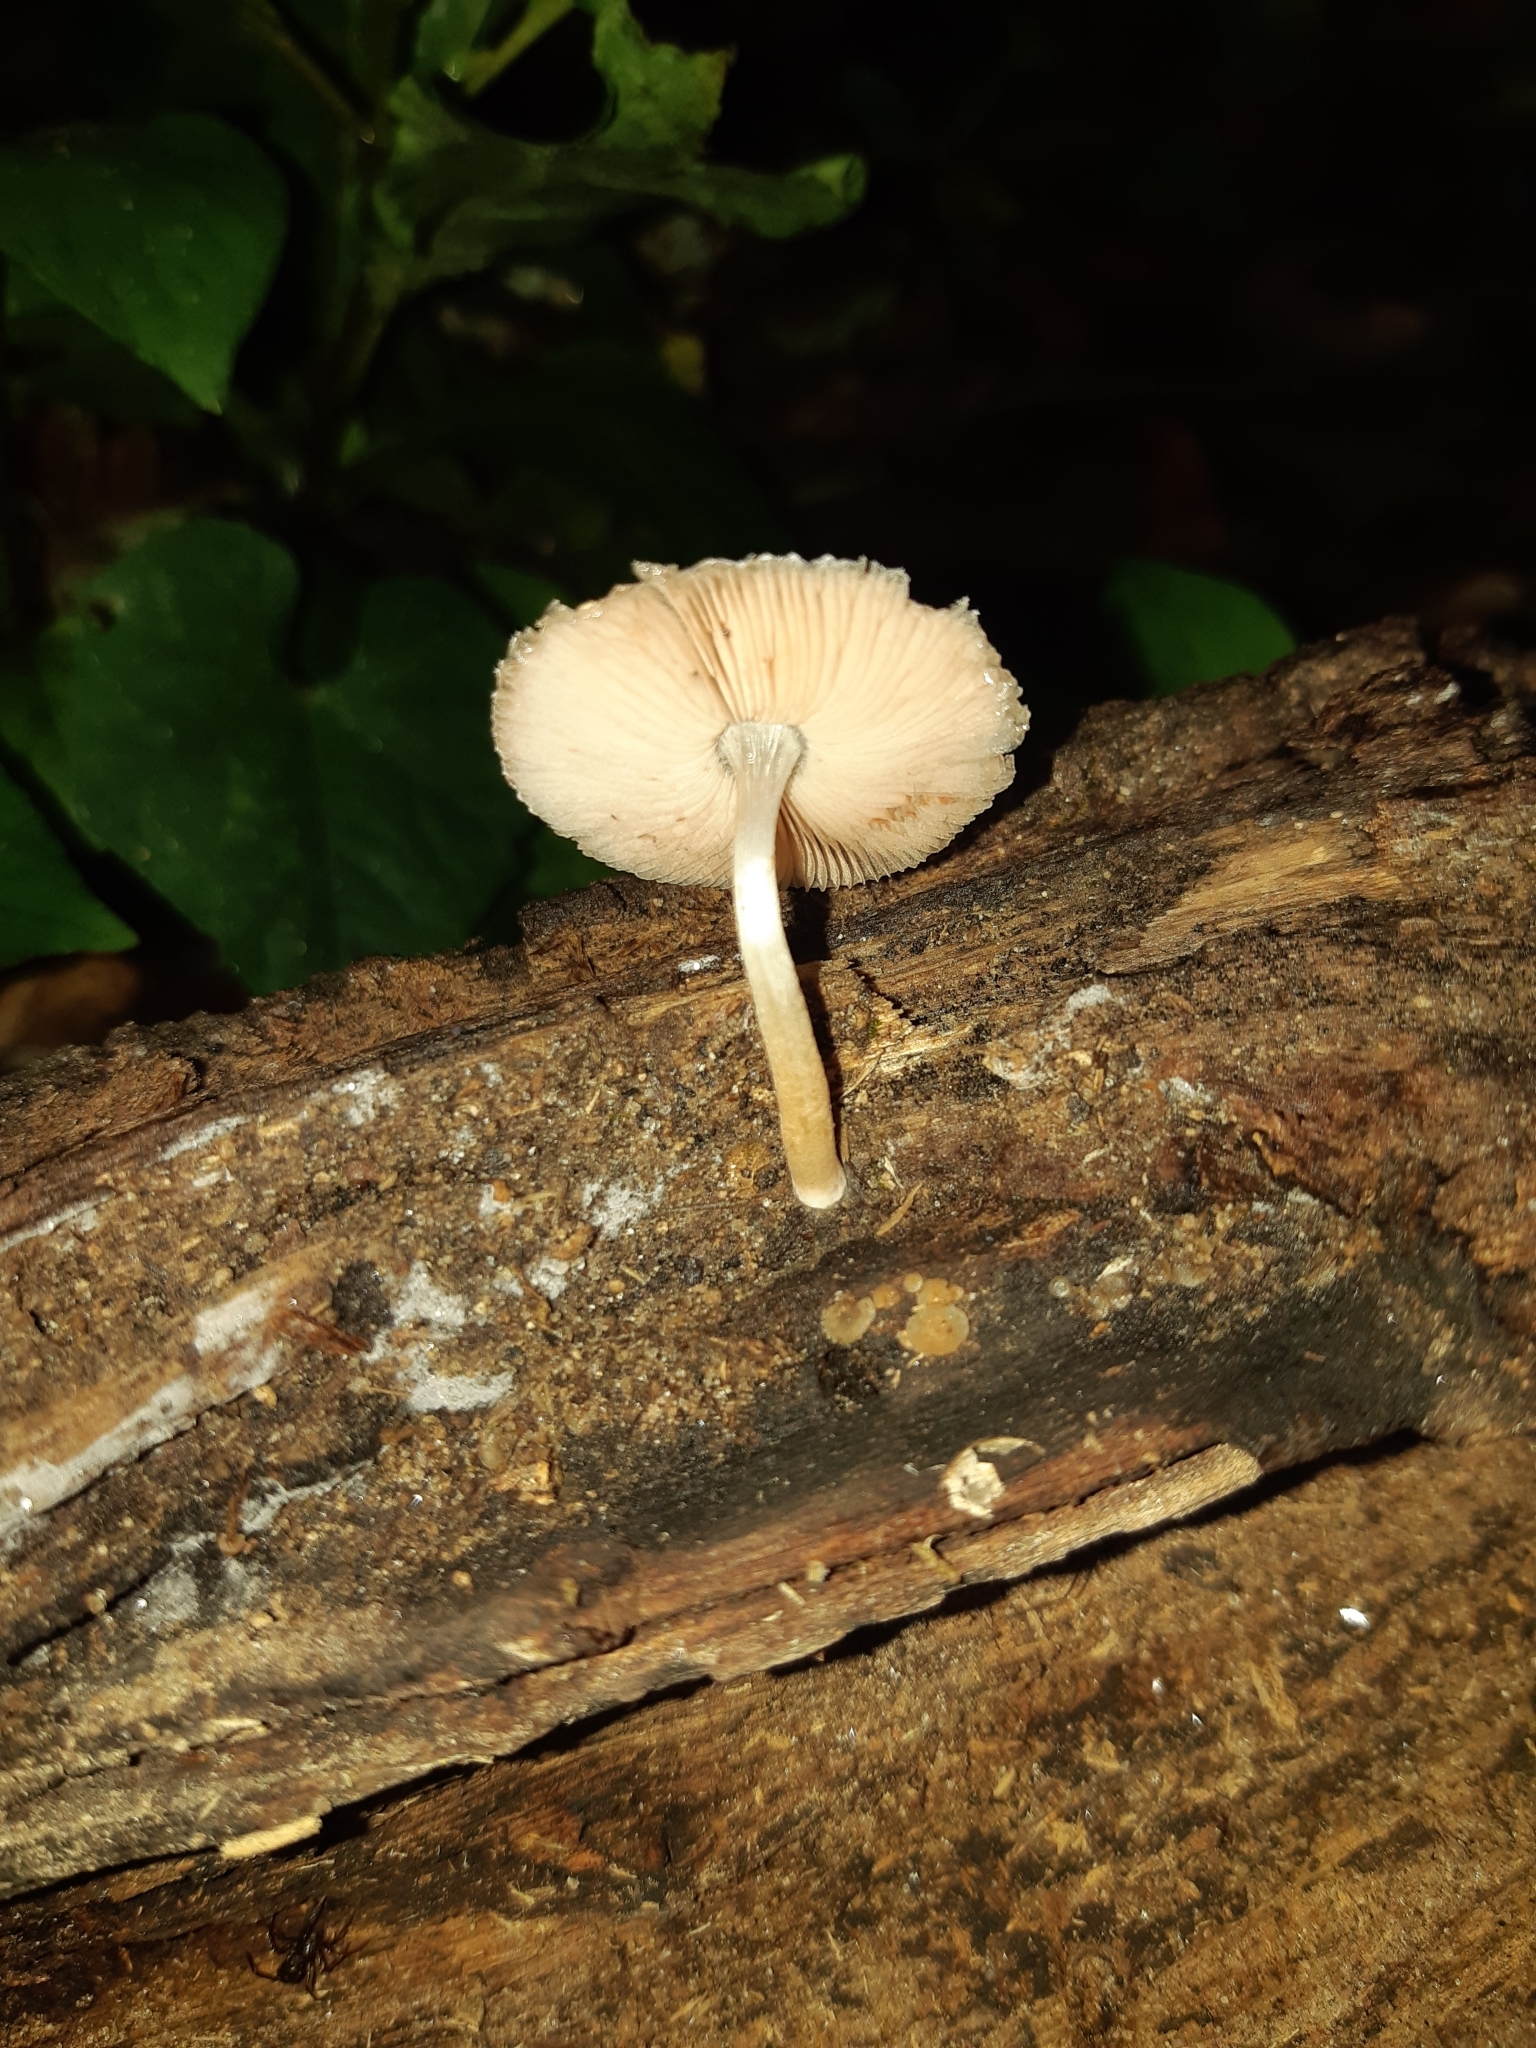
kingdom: Fungi
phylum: Basidiomycota
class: Agaricomycetes
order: Agaricales
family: Pluteaceae
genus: Pluteus
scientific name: Pluteus longistriatus
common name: Pleated pluteus
